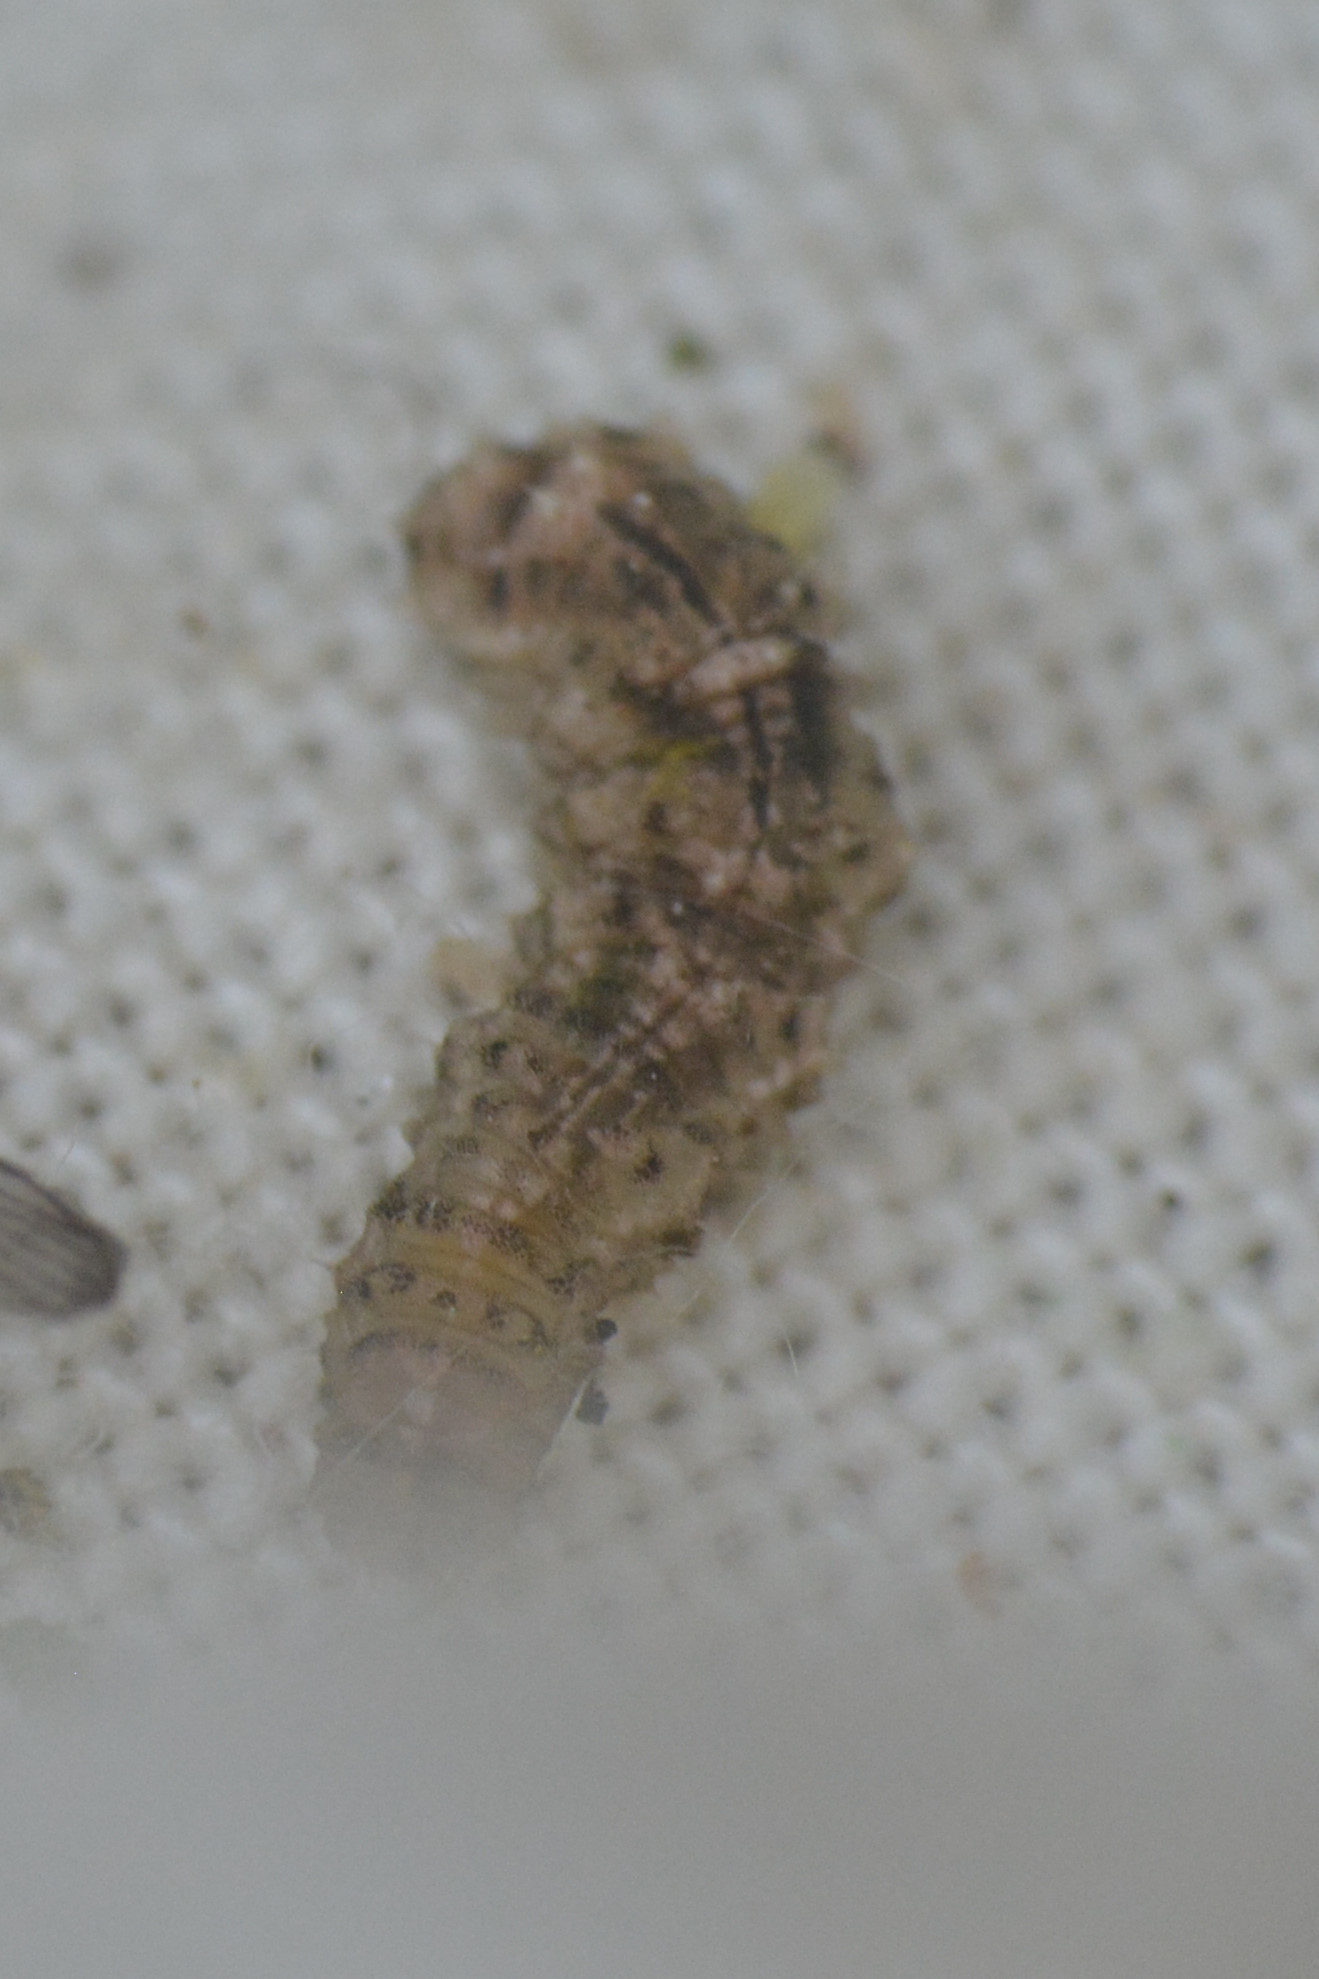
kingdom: Animalia
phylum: Arthropoda
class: Insecta
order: Diptera
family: Syrphidae
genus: Eupeodes
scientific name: Eupeodes
